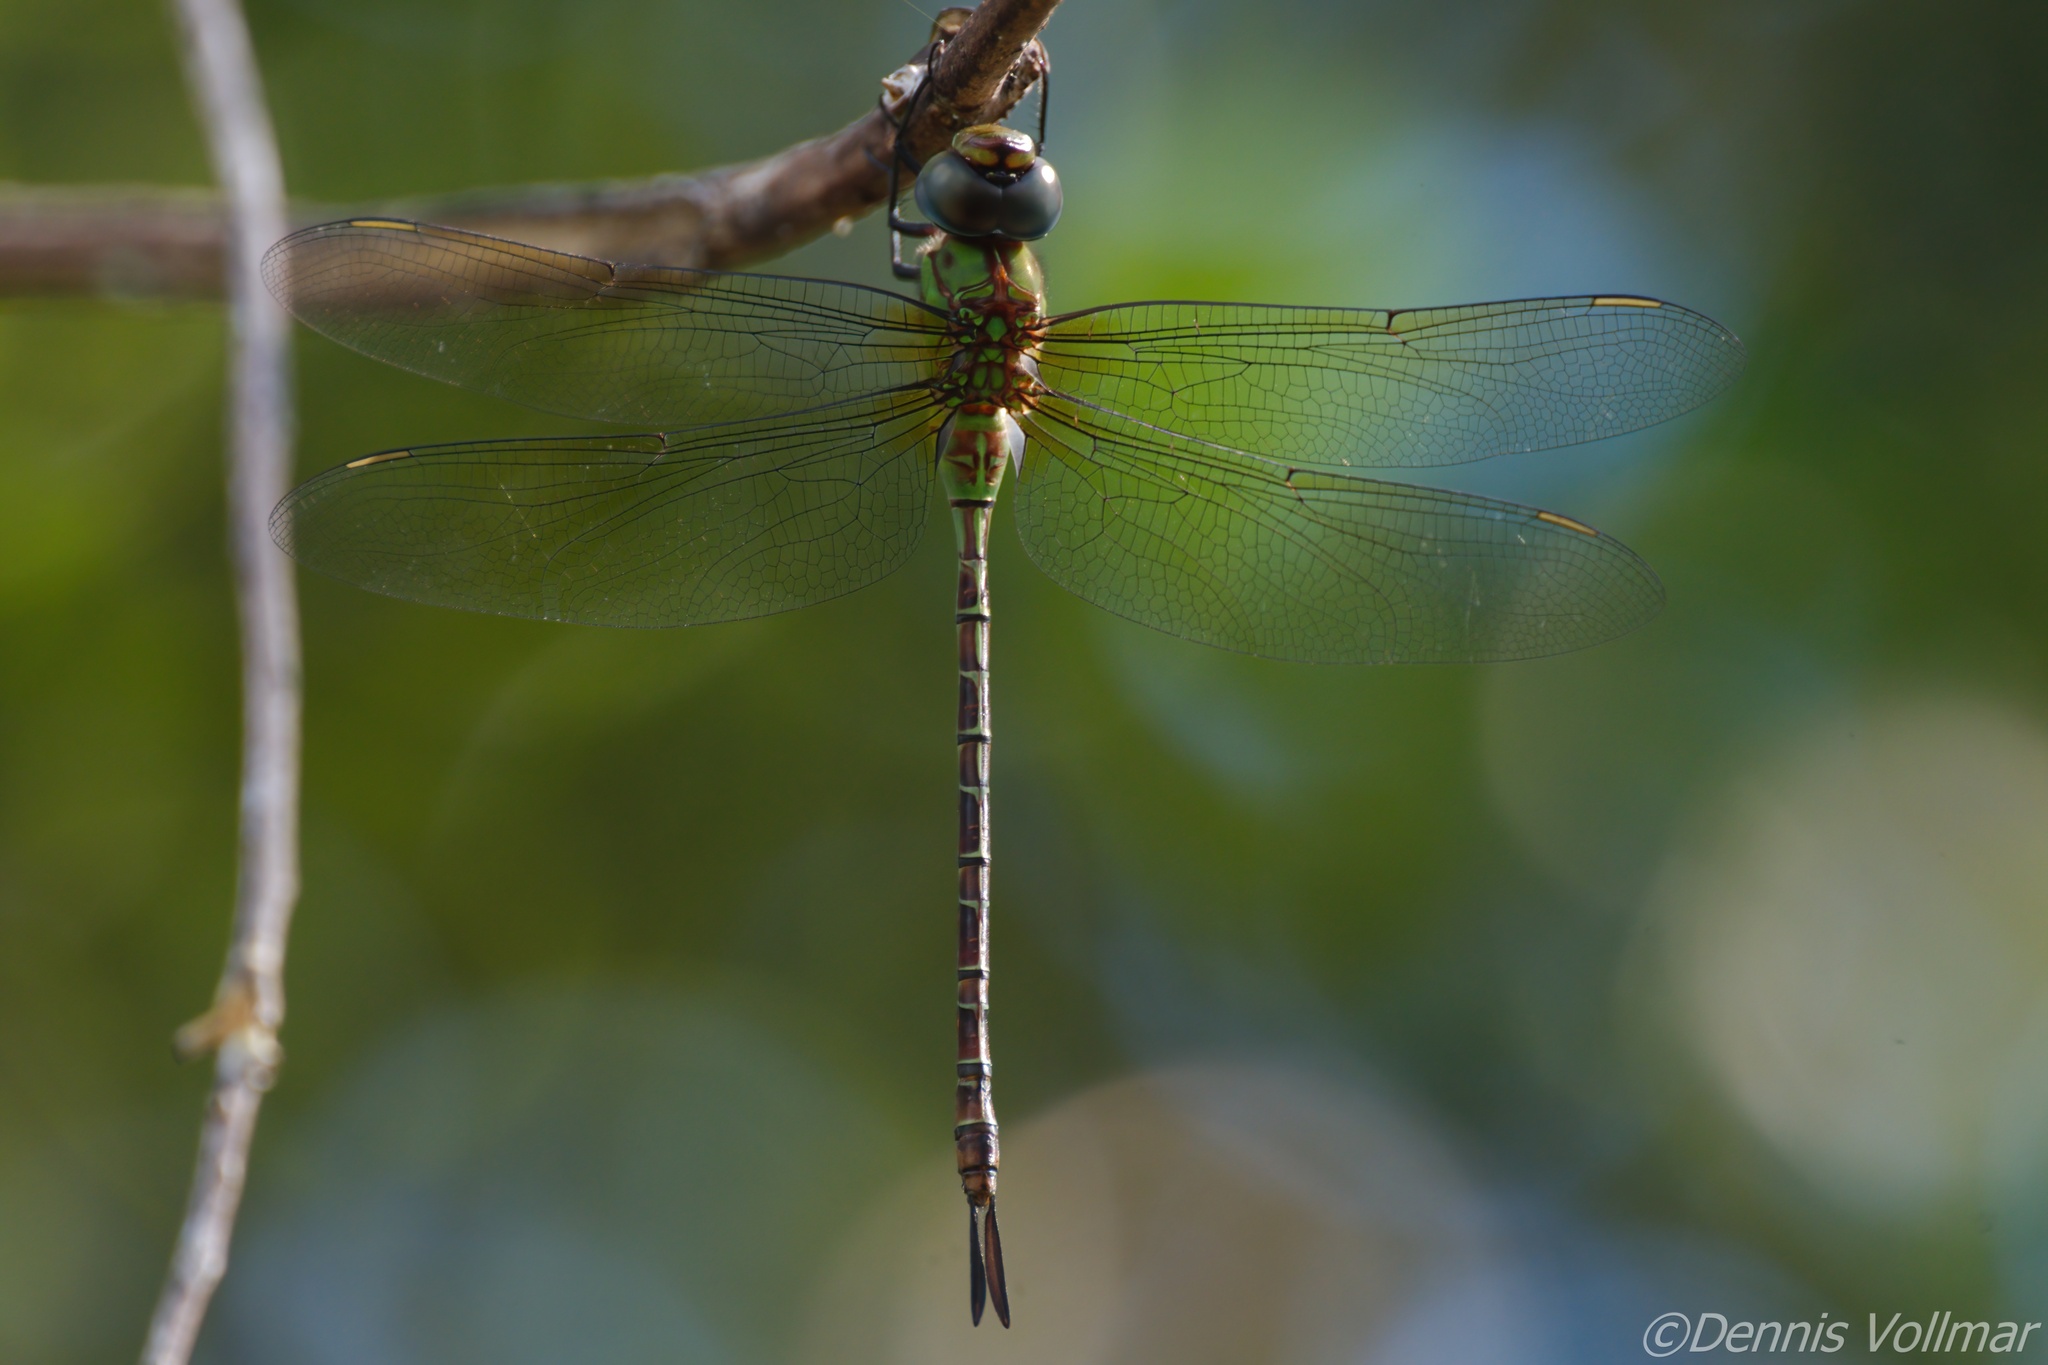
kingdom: Animalia
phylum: Arthropoda
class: Insecta
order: Odonata
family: Aeshnidae
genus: Coryphaeschna
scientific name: Coryphaeschna adnexa
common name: Blue-faced darner
